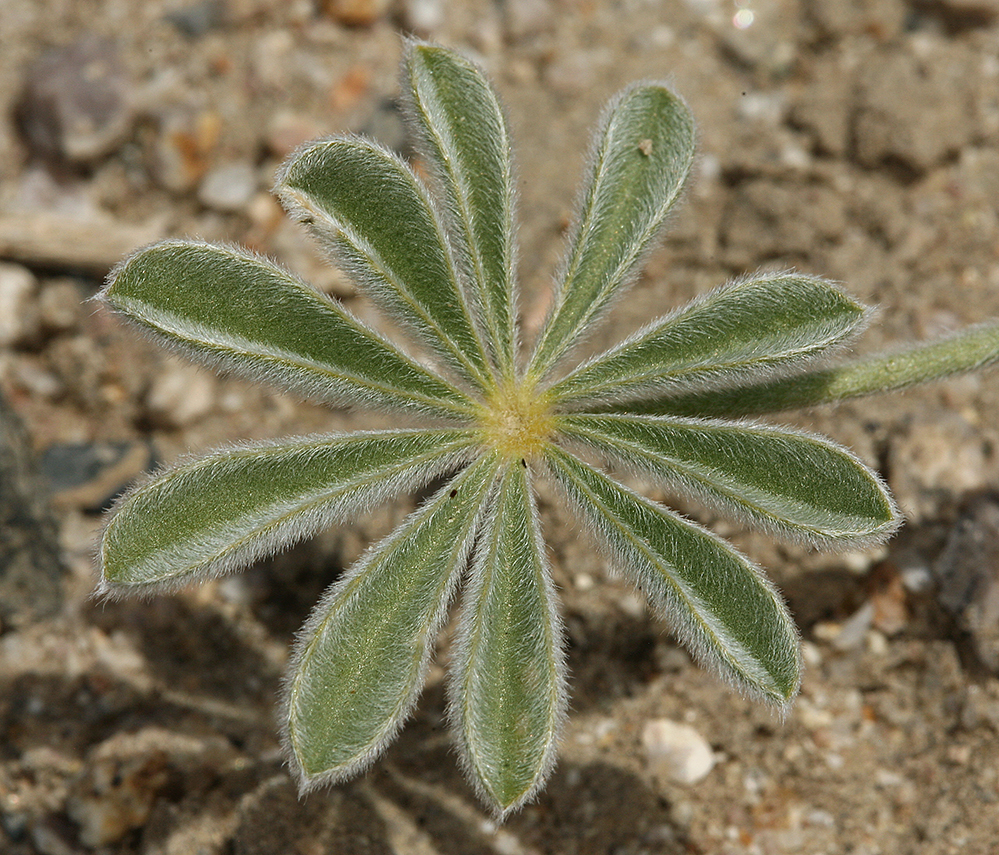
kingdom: Plantae
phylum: Tracheophyta
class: Magnoliopsida
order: Fabales
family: Fabaceae
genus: Lupinus
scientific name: Lupinus shockleyi
